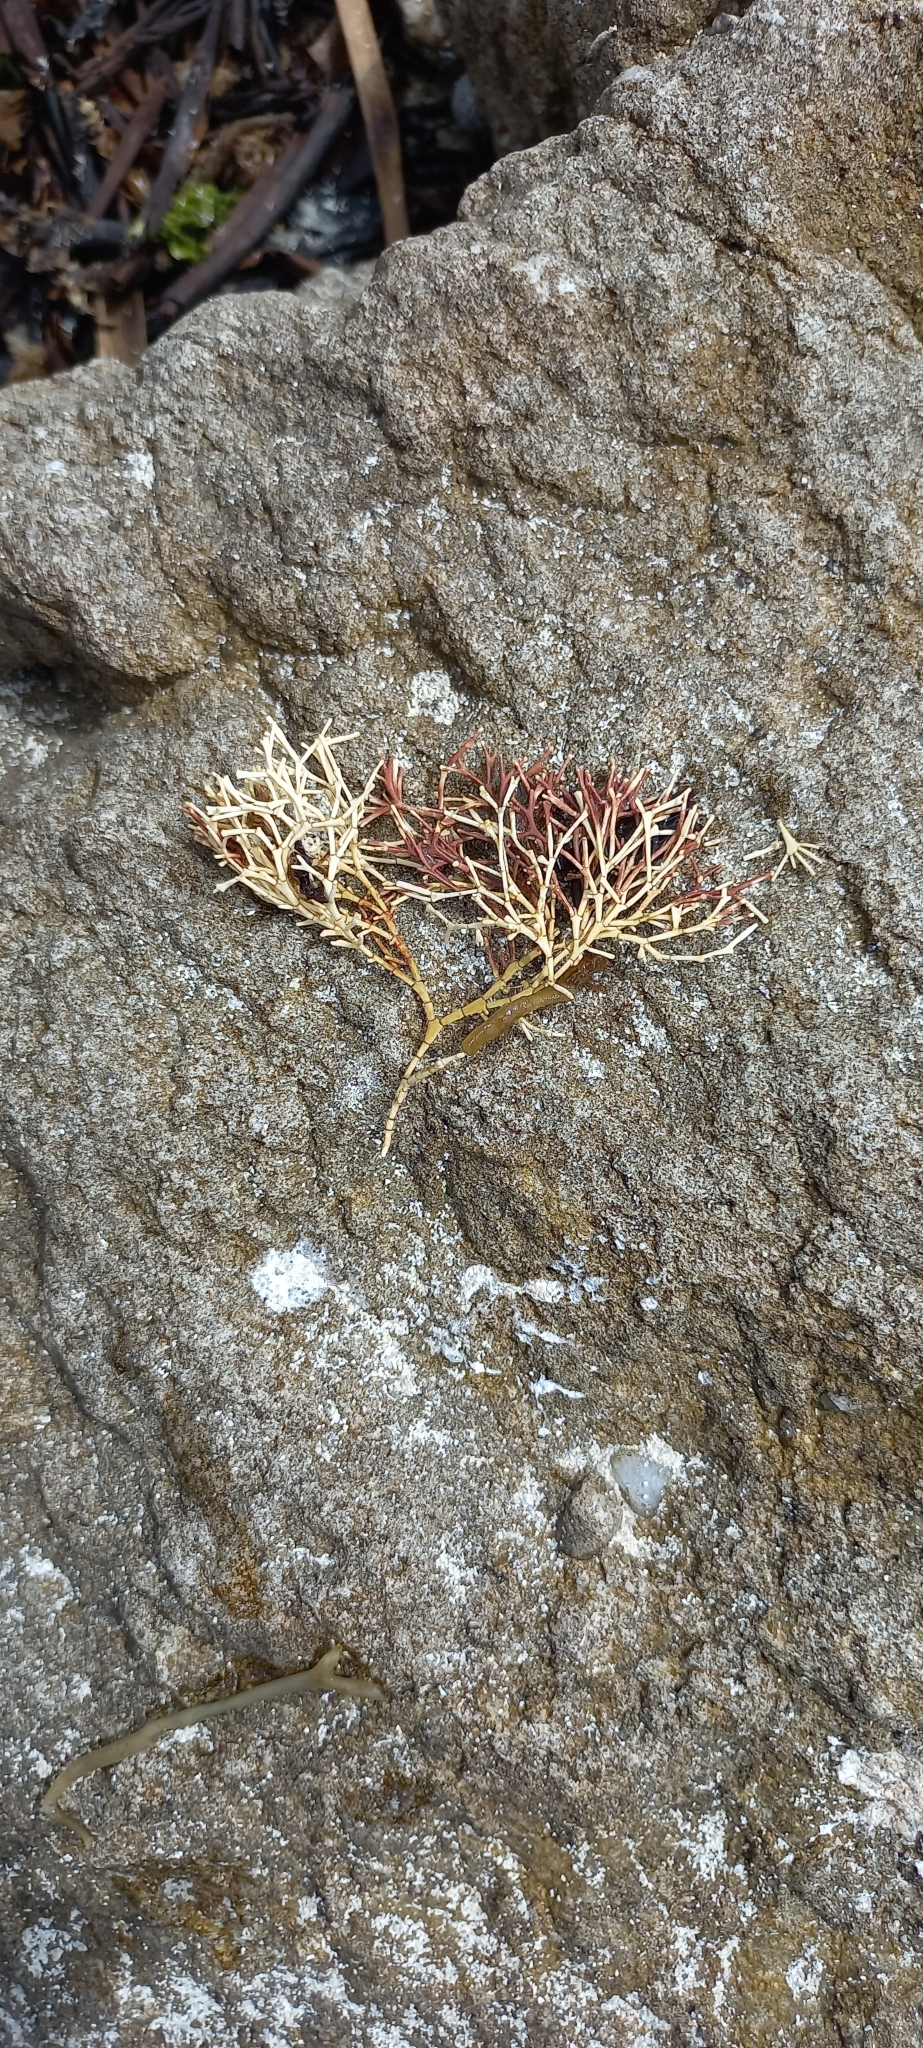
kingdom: Plantae
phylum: Rhodophyta
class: Florideophyceae
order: Corallinales
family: Corallinaceae
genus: Arthrocardia
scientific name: Arthrocardia palmata
